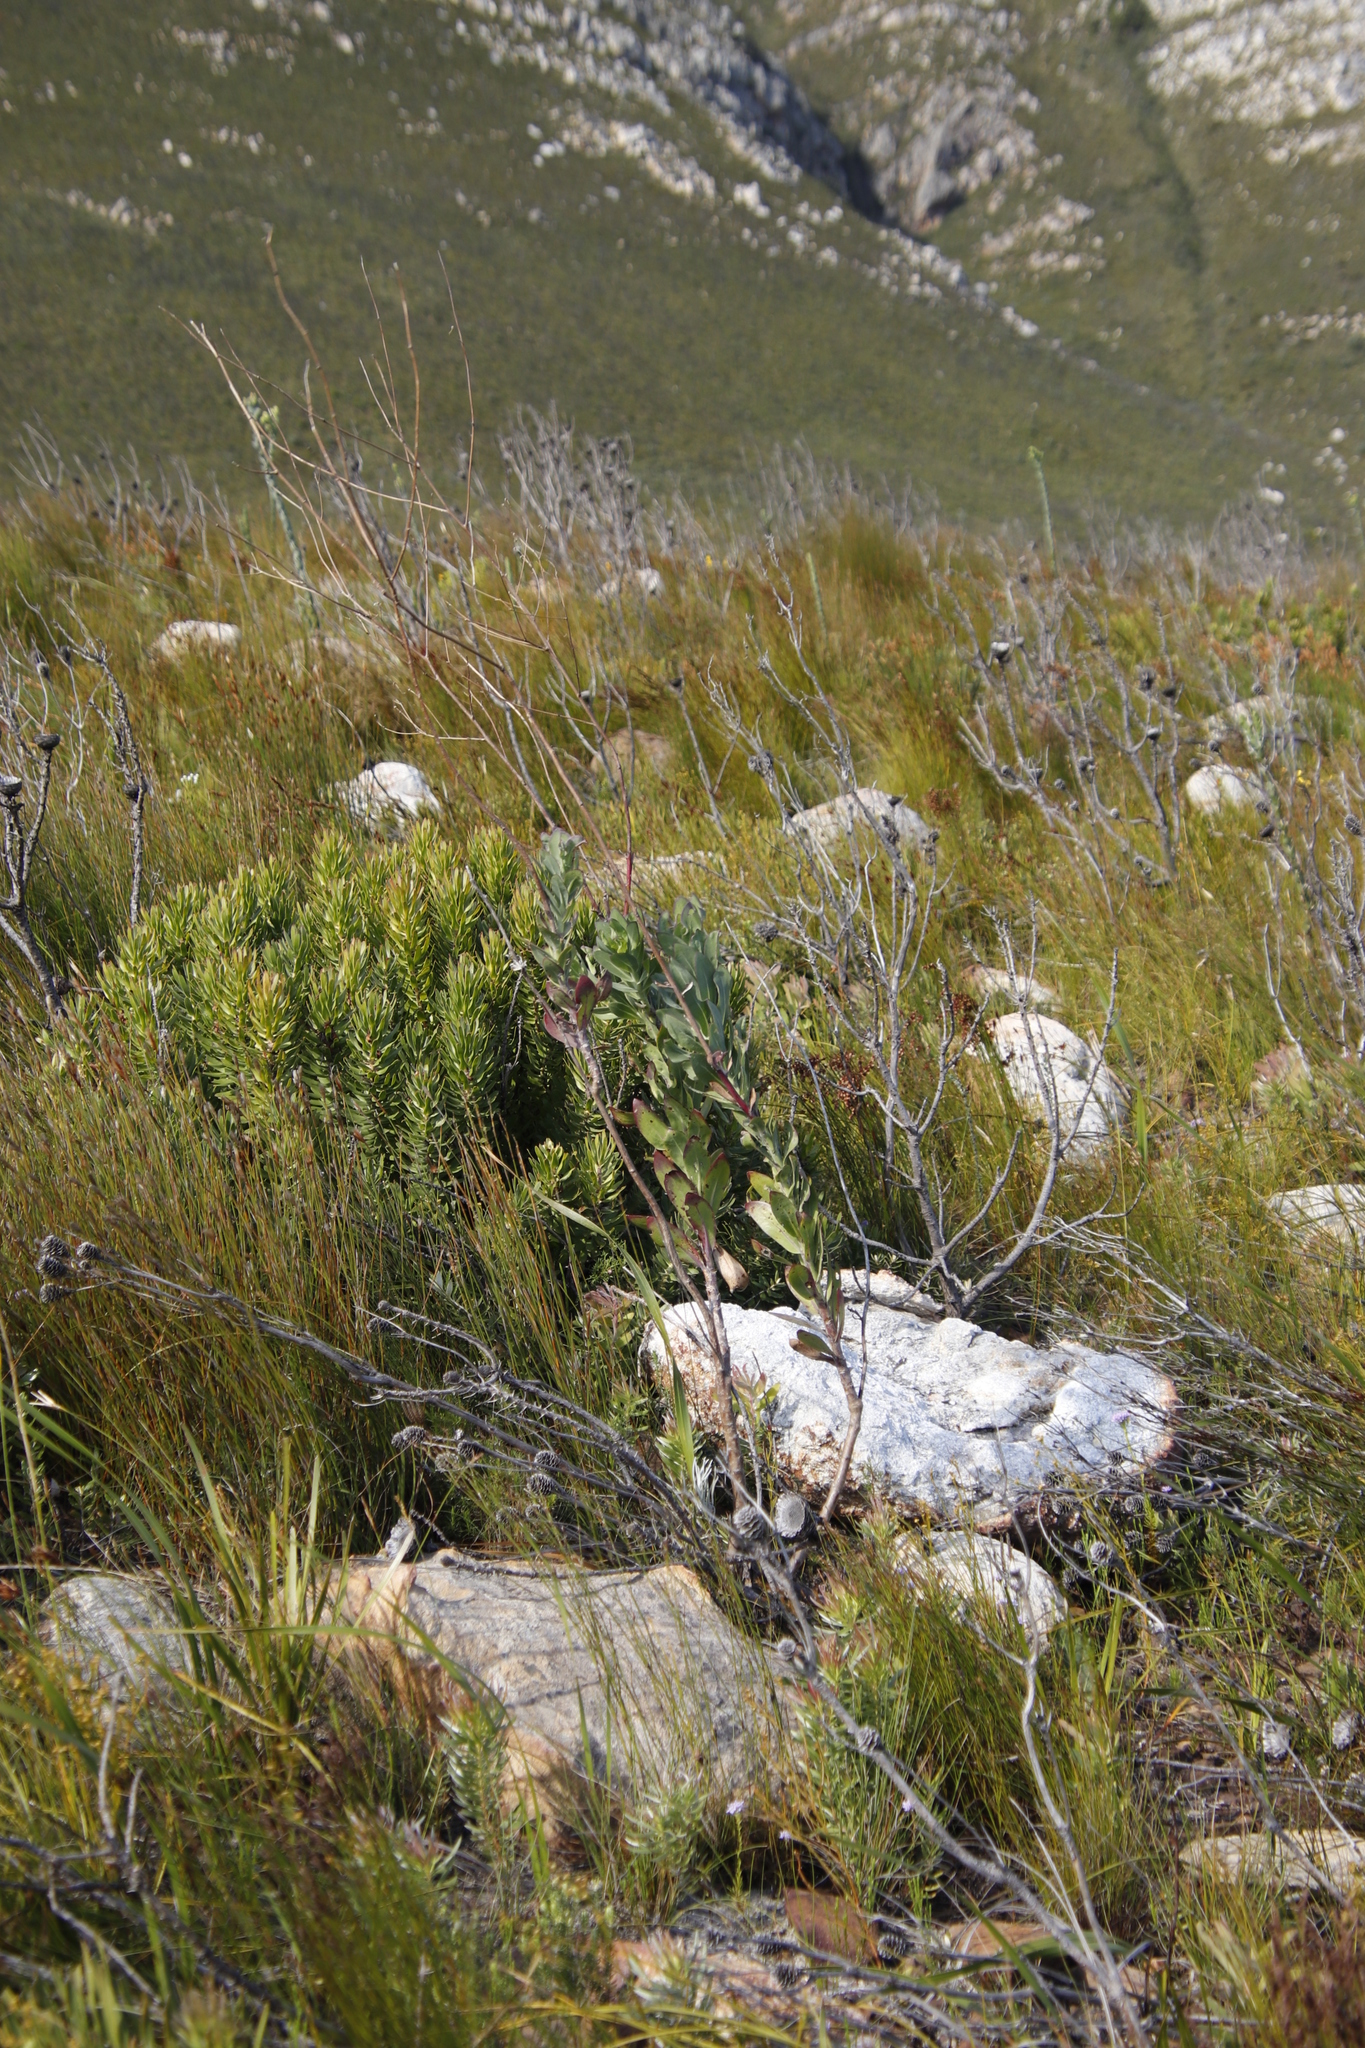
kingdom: Plantae
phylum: Tracheophyta
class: Magnoliopsida
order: Asterales
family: Asteraceae
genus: Othonna
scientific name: Othonna quinquedentata
